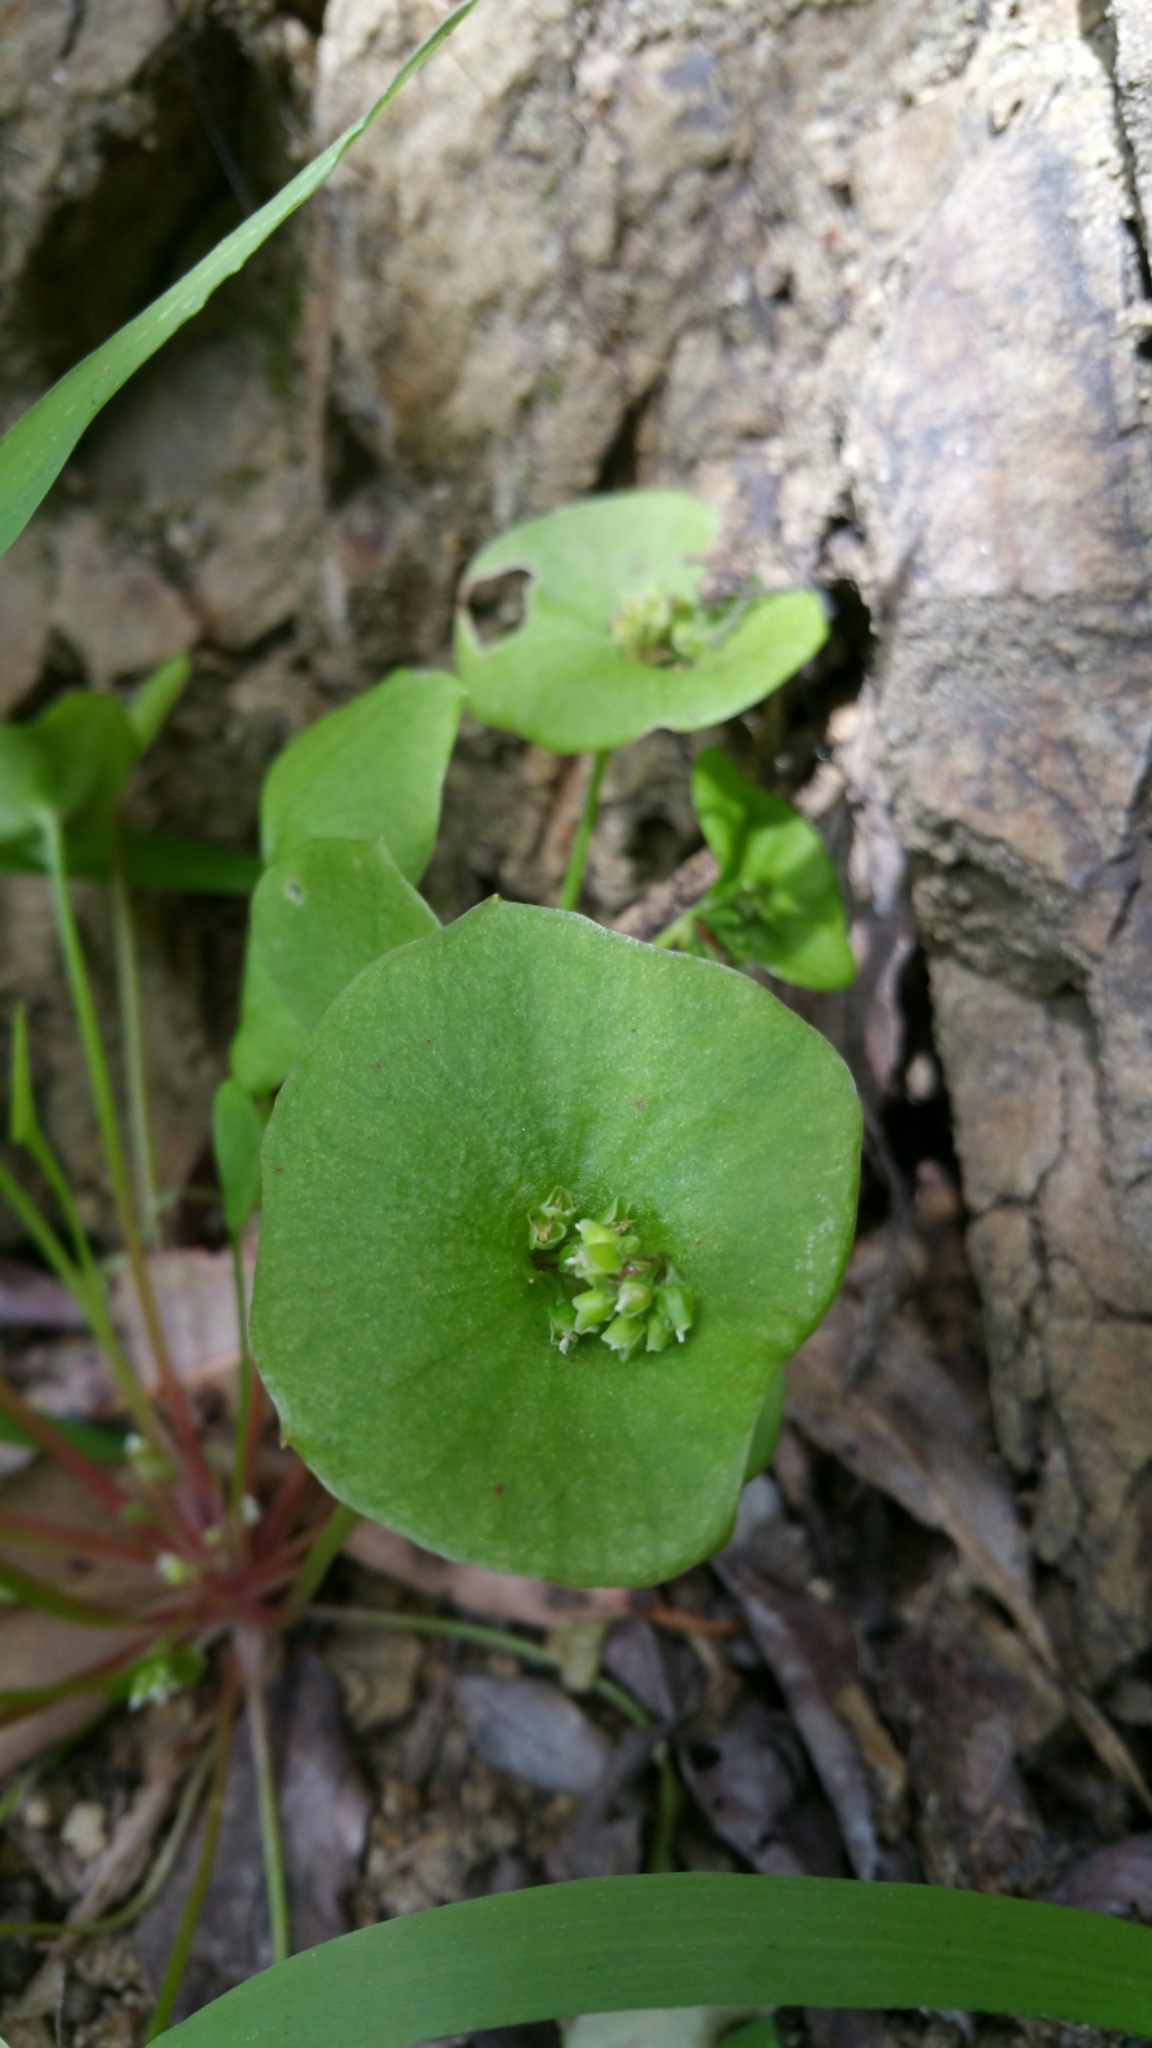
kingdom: Plantae
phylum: Tracheophyta
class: Magnoliopsida
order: Caryophyllales
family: Montiaceae
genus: Claytonia
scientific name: Claytonia perfoliata
